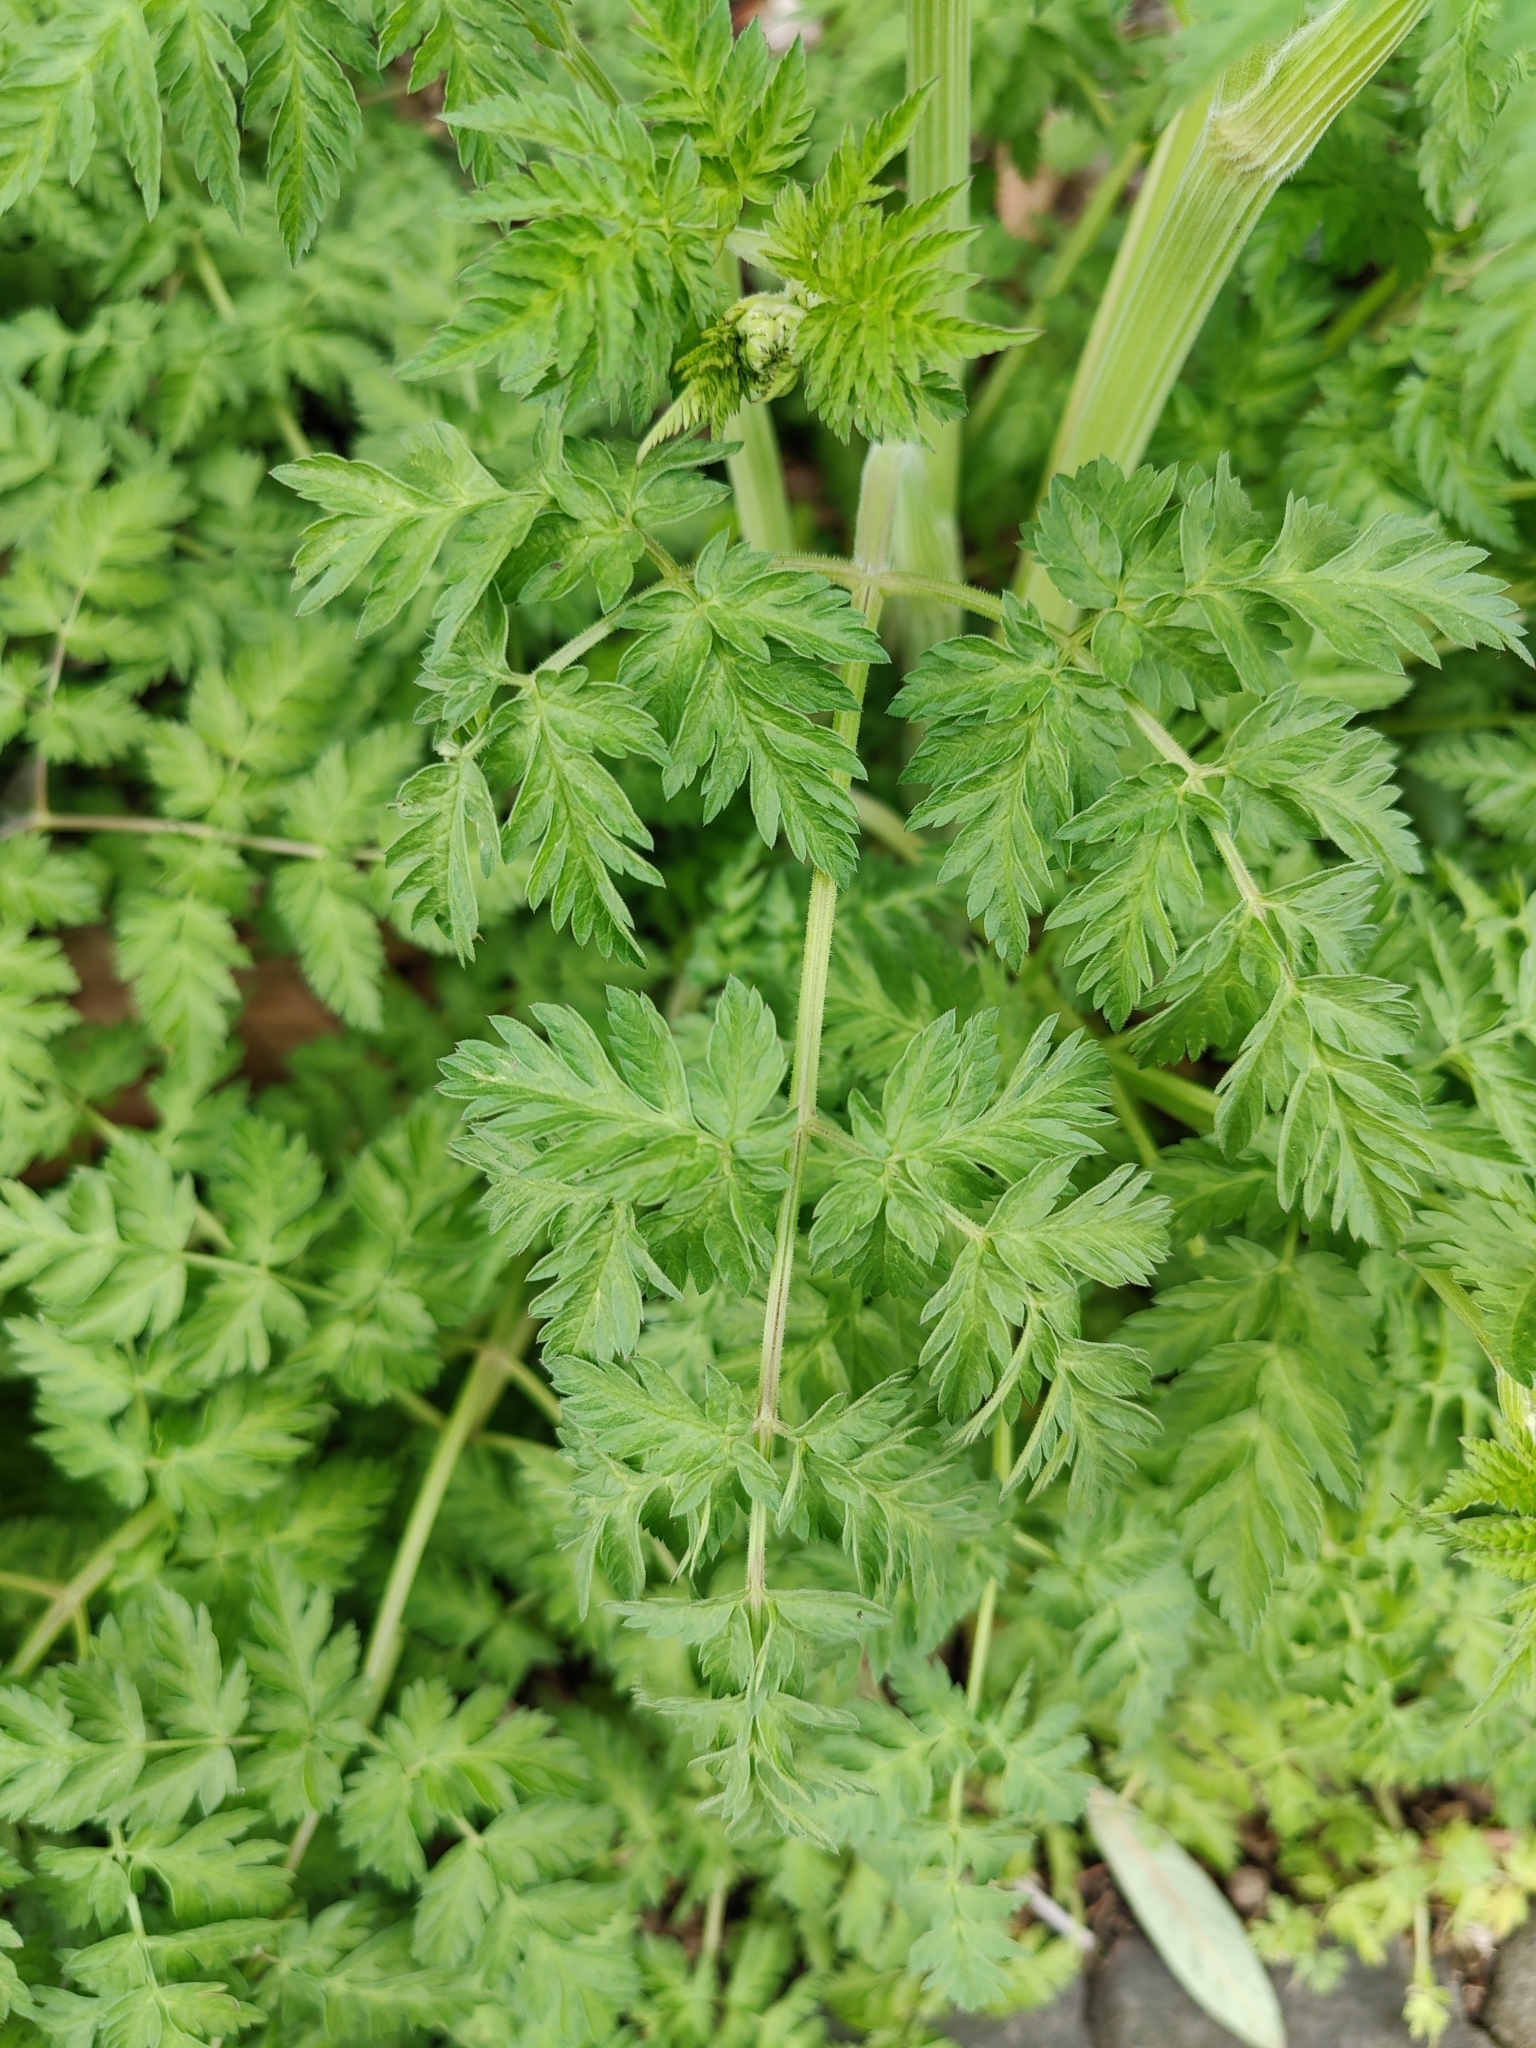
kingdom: Plantae
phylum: Tracheophyta
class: Magnoliopsida
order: Apiales
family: Apiaceae
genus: Anthriscus
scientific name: Anthriscus sylvestris
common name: Cow parsley
